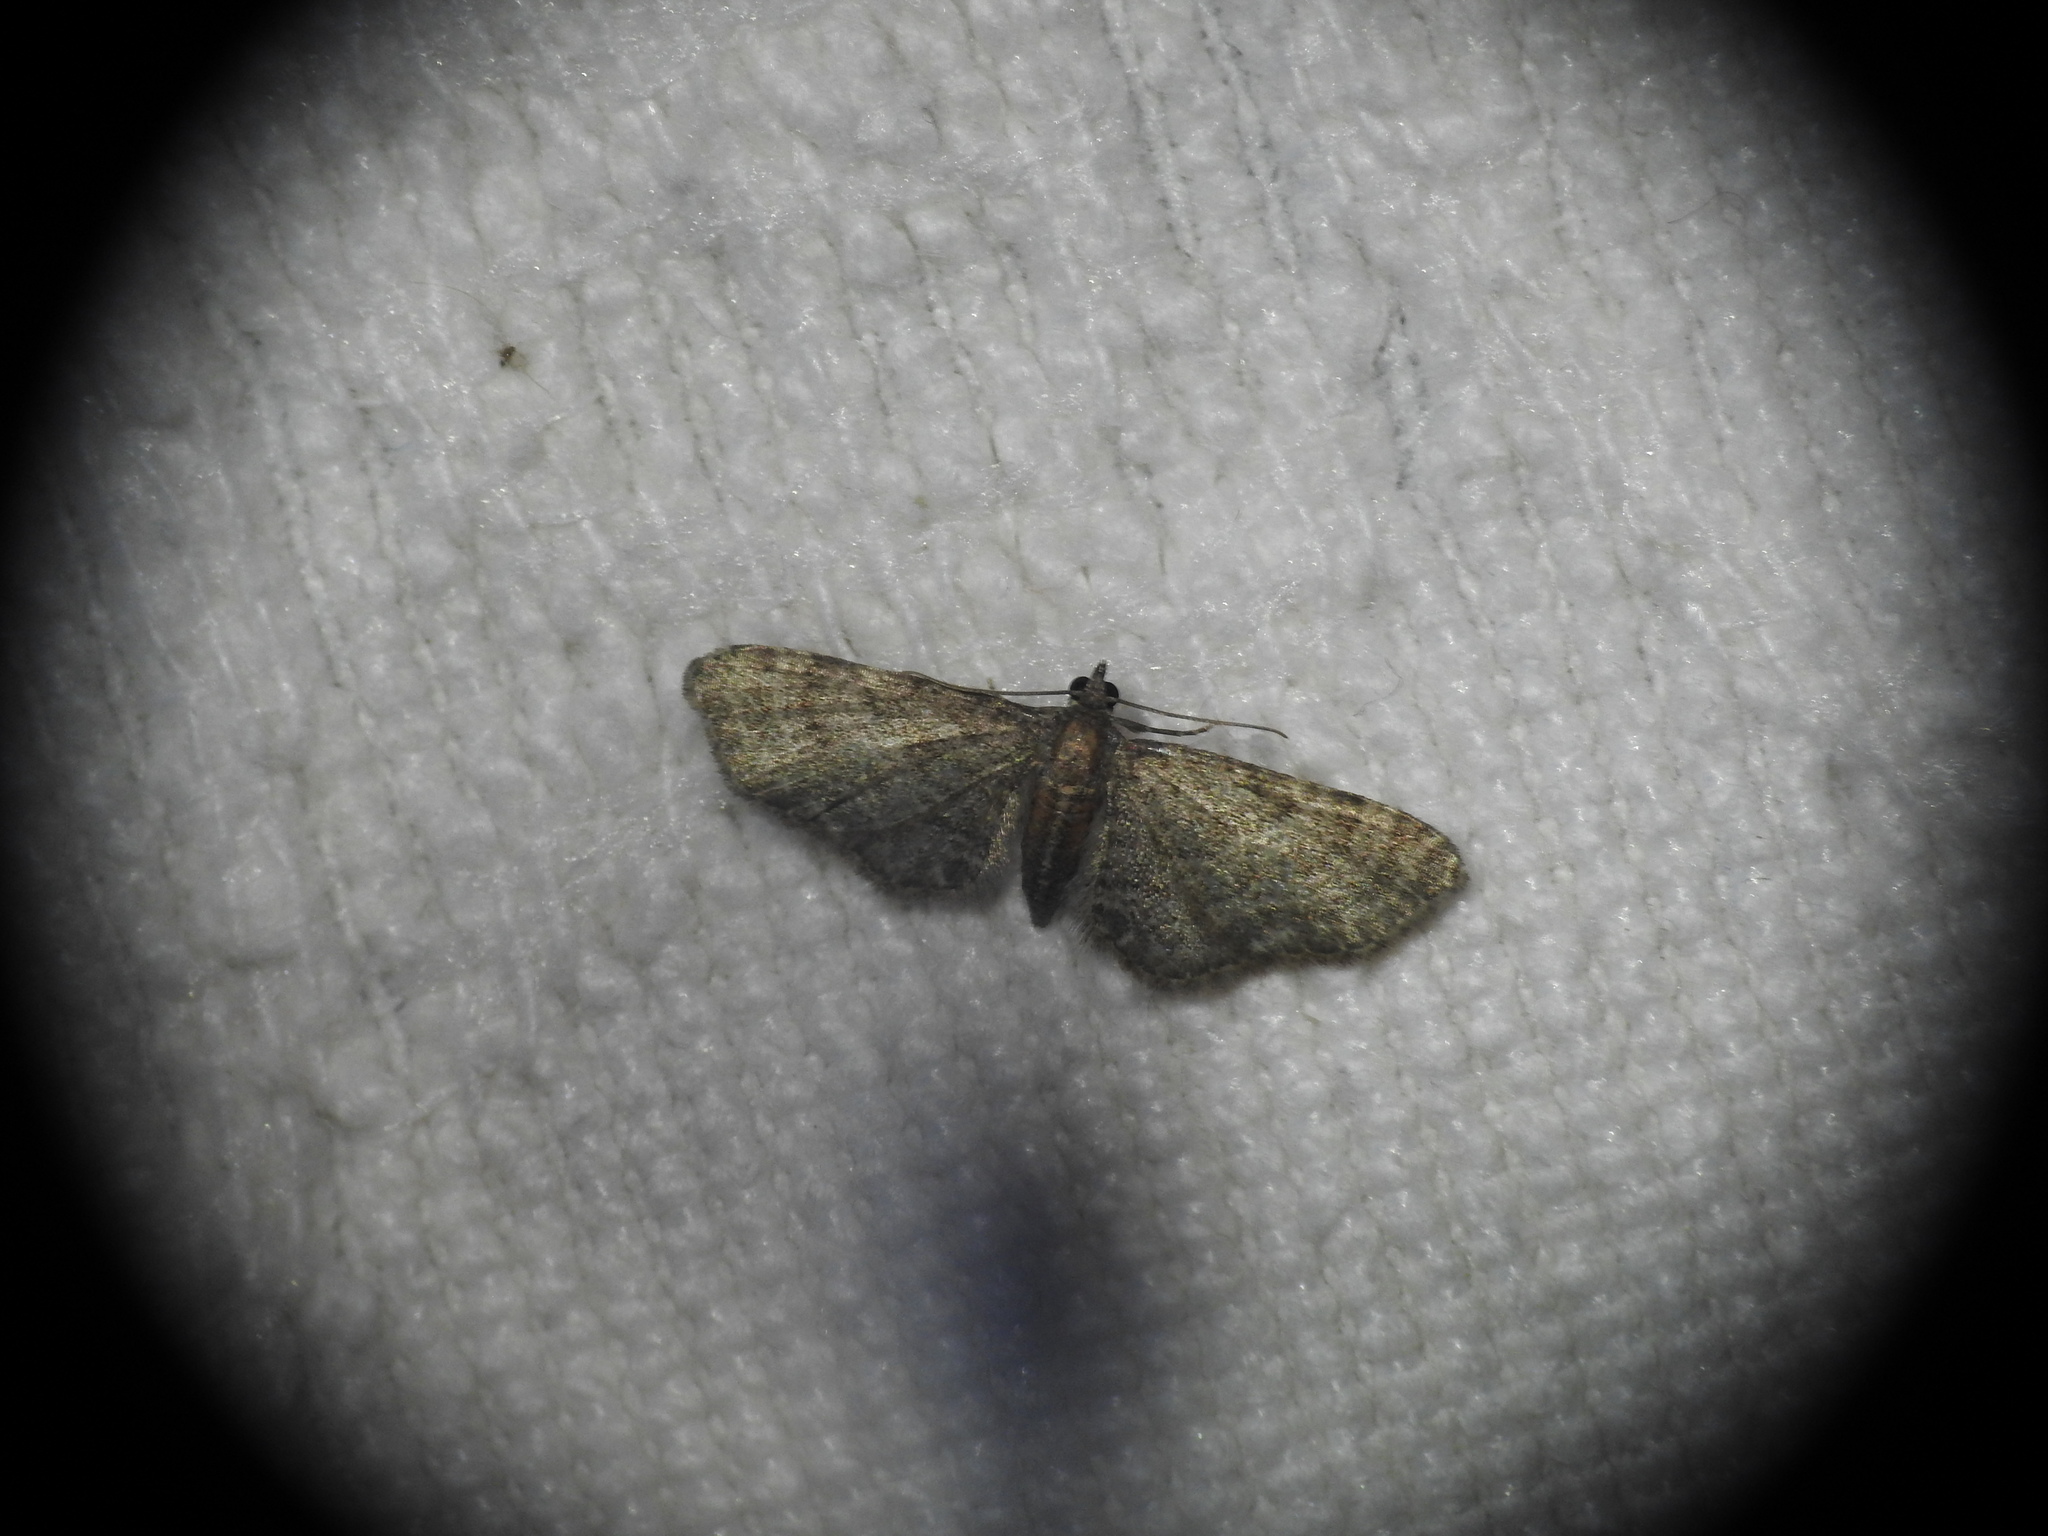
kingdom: Animalia
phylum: Arthropoda
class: Insecta
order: Lepidoptera
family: Geometridae
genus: Eupithecia
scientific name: Eupithecia haworthiata
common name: Haworth's pug
